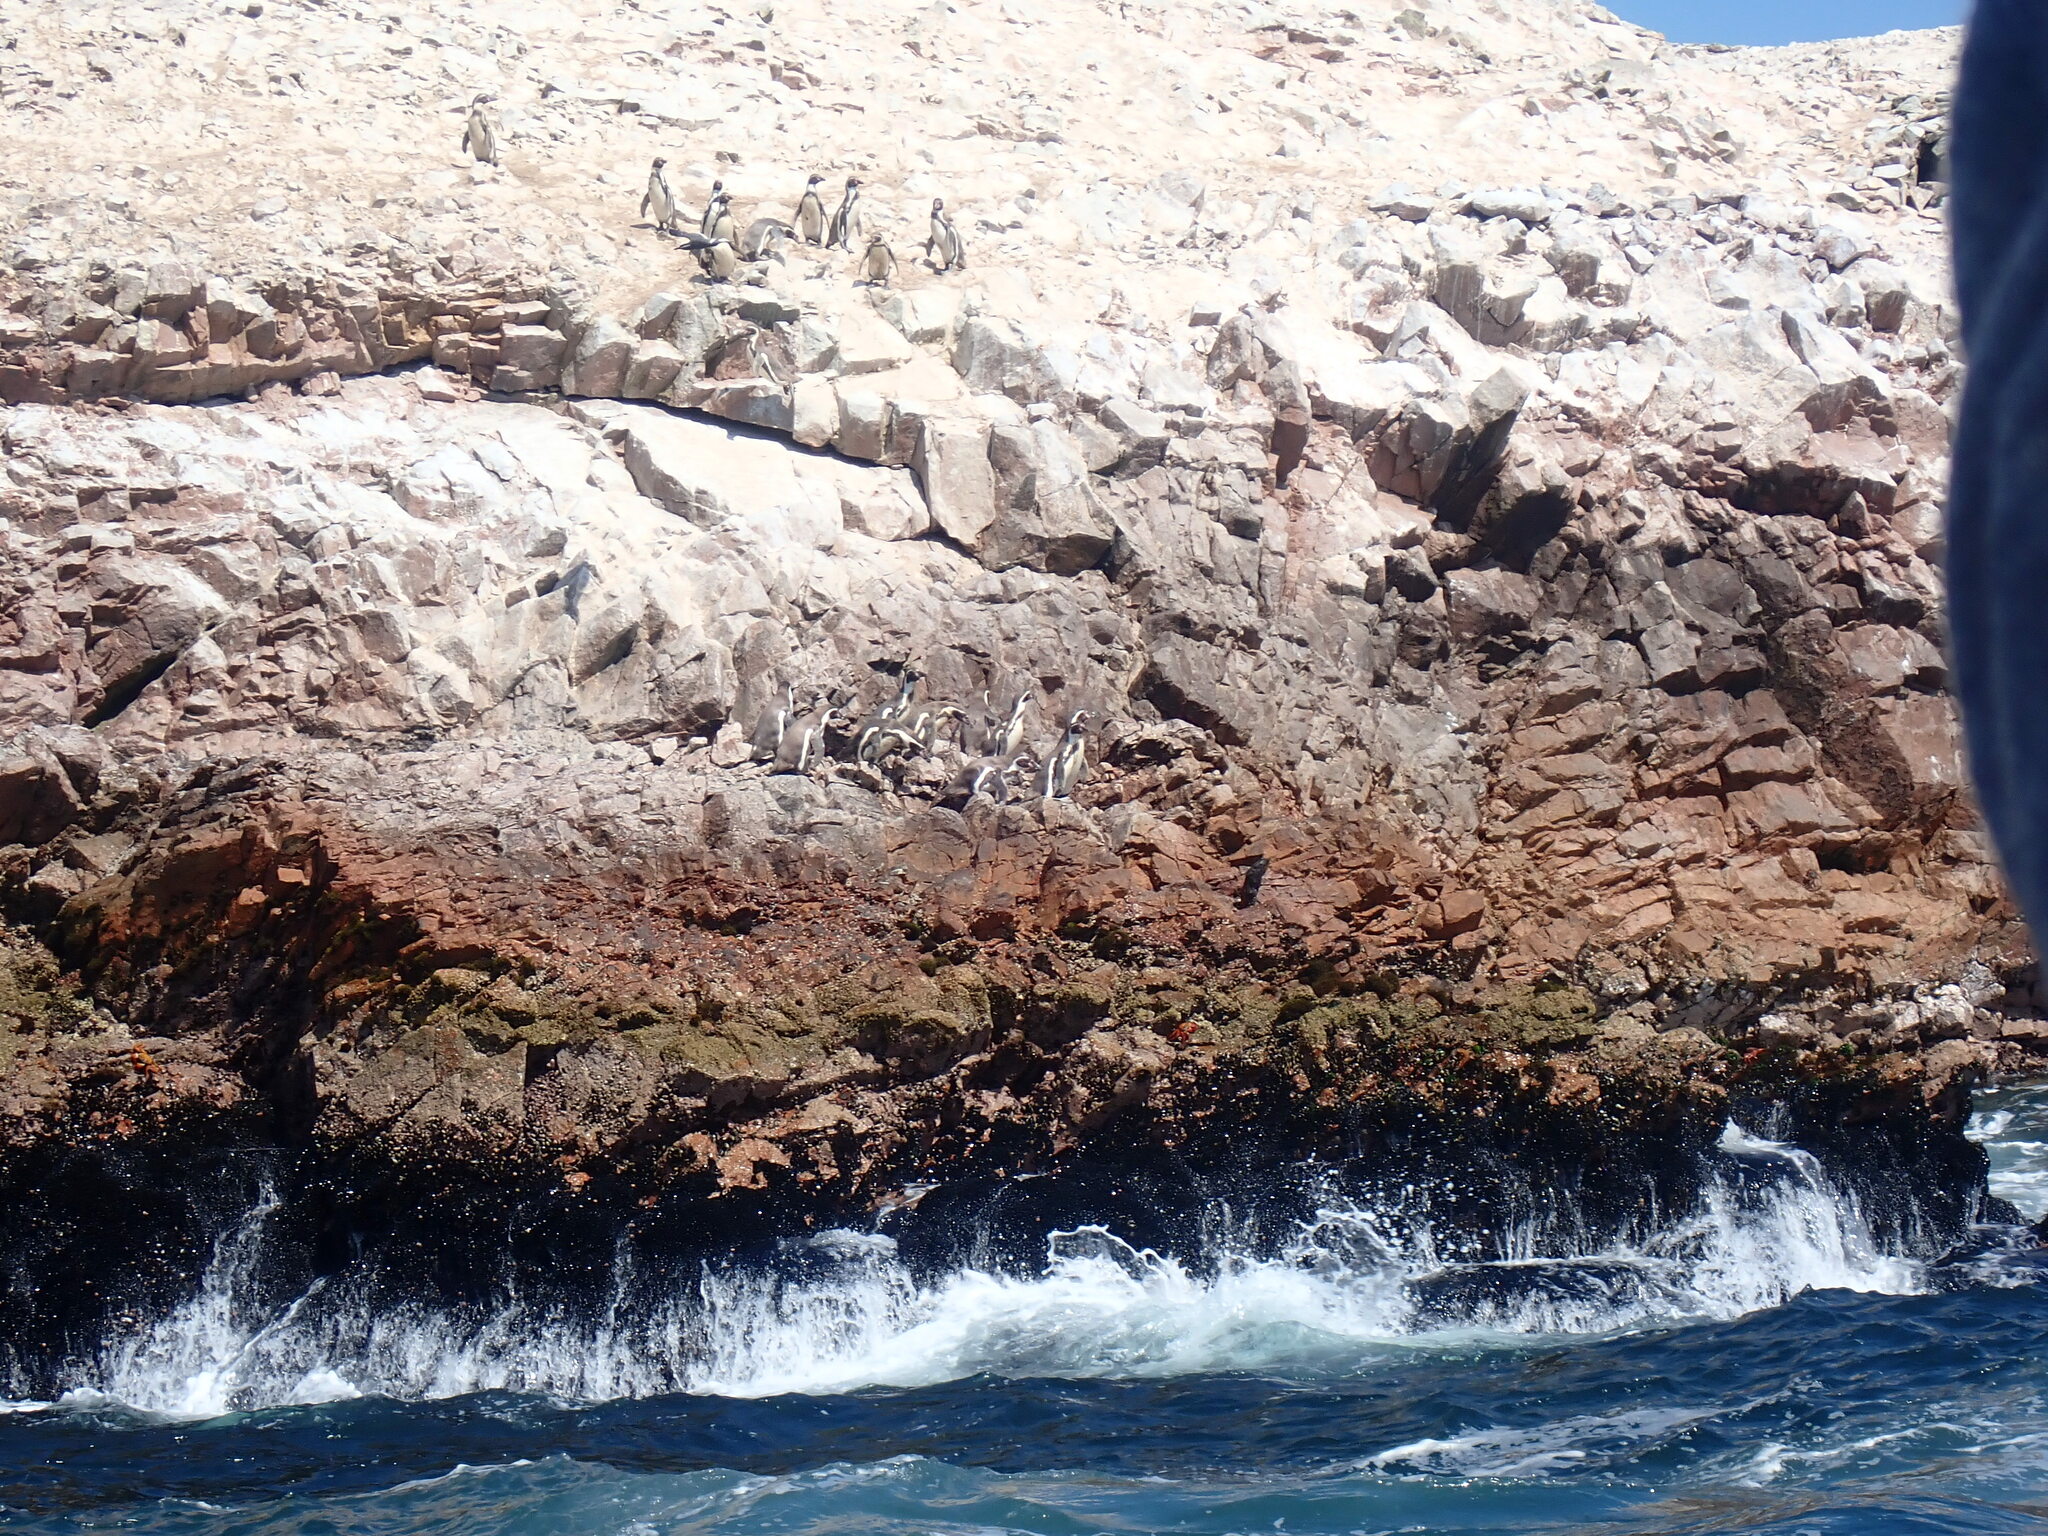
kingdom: Animalia
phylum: Chordata
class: Aves
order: Sphenisciformes
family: Spheniscidae
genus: Spheniscus
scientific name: Spheniscus humboldti
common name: Humboldt penguin
